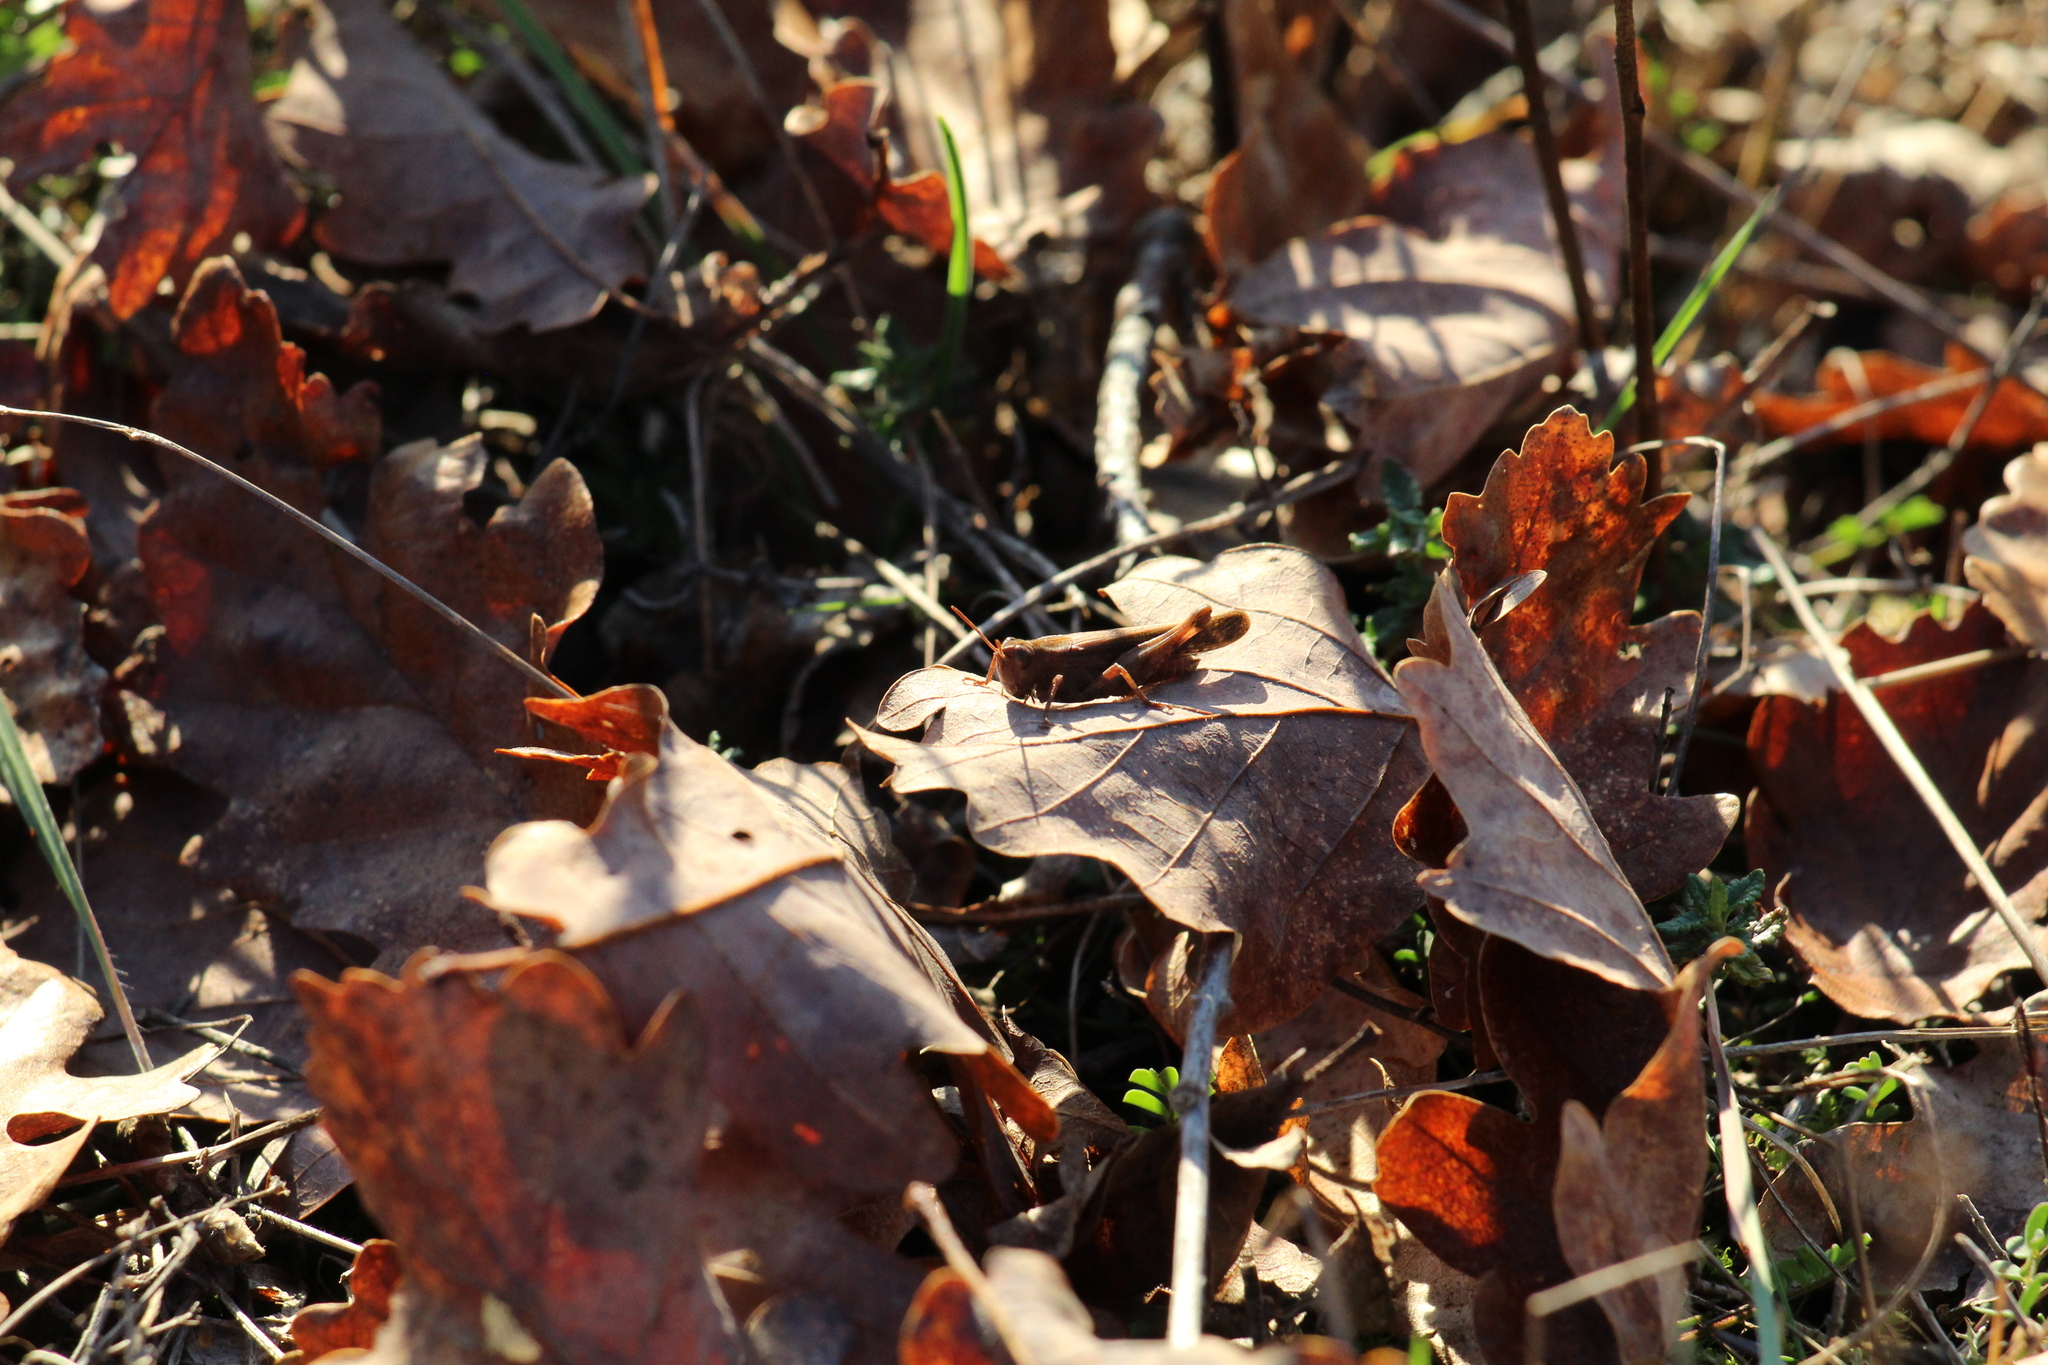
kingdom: Animalia
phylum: Arthropoda
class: Insecta
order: Orthoptera
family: Acrididae
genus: Aiolopus
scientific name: Aiolopus strepens
